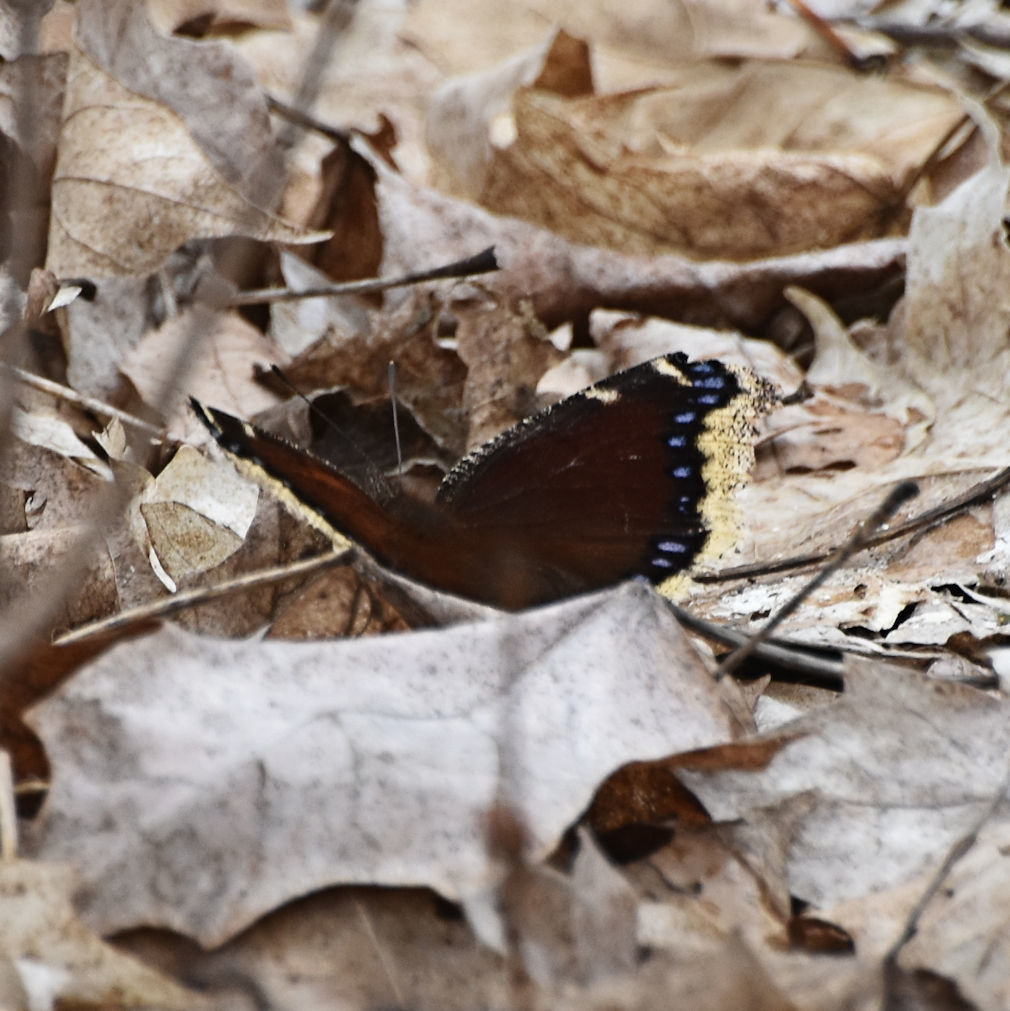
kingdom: Animalia
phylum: Arthropoda
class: Insecta
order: Lepidoptera
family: Nymphalidae
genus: Nymphalis
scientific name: Nymphalis antiopa
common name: Camberwell beauty
